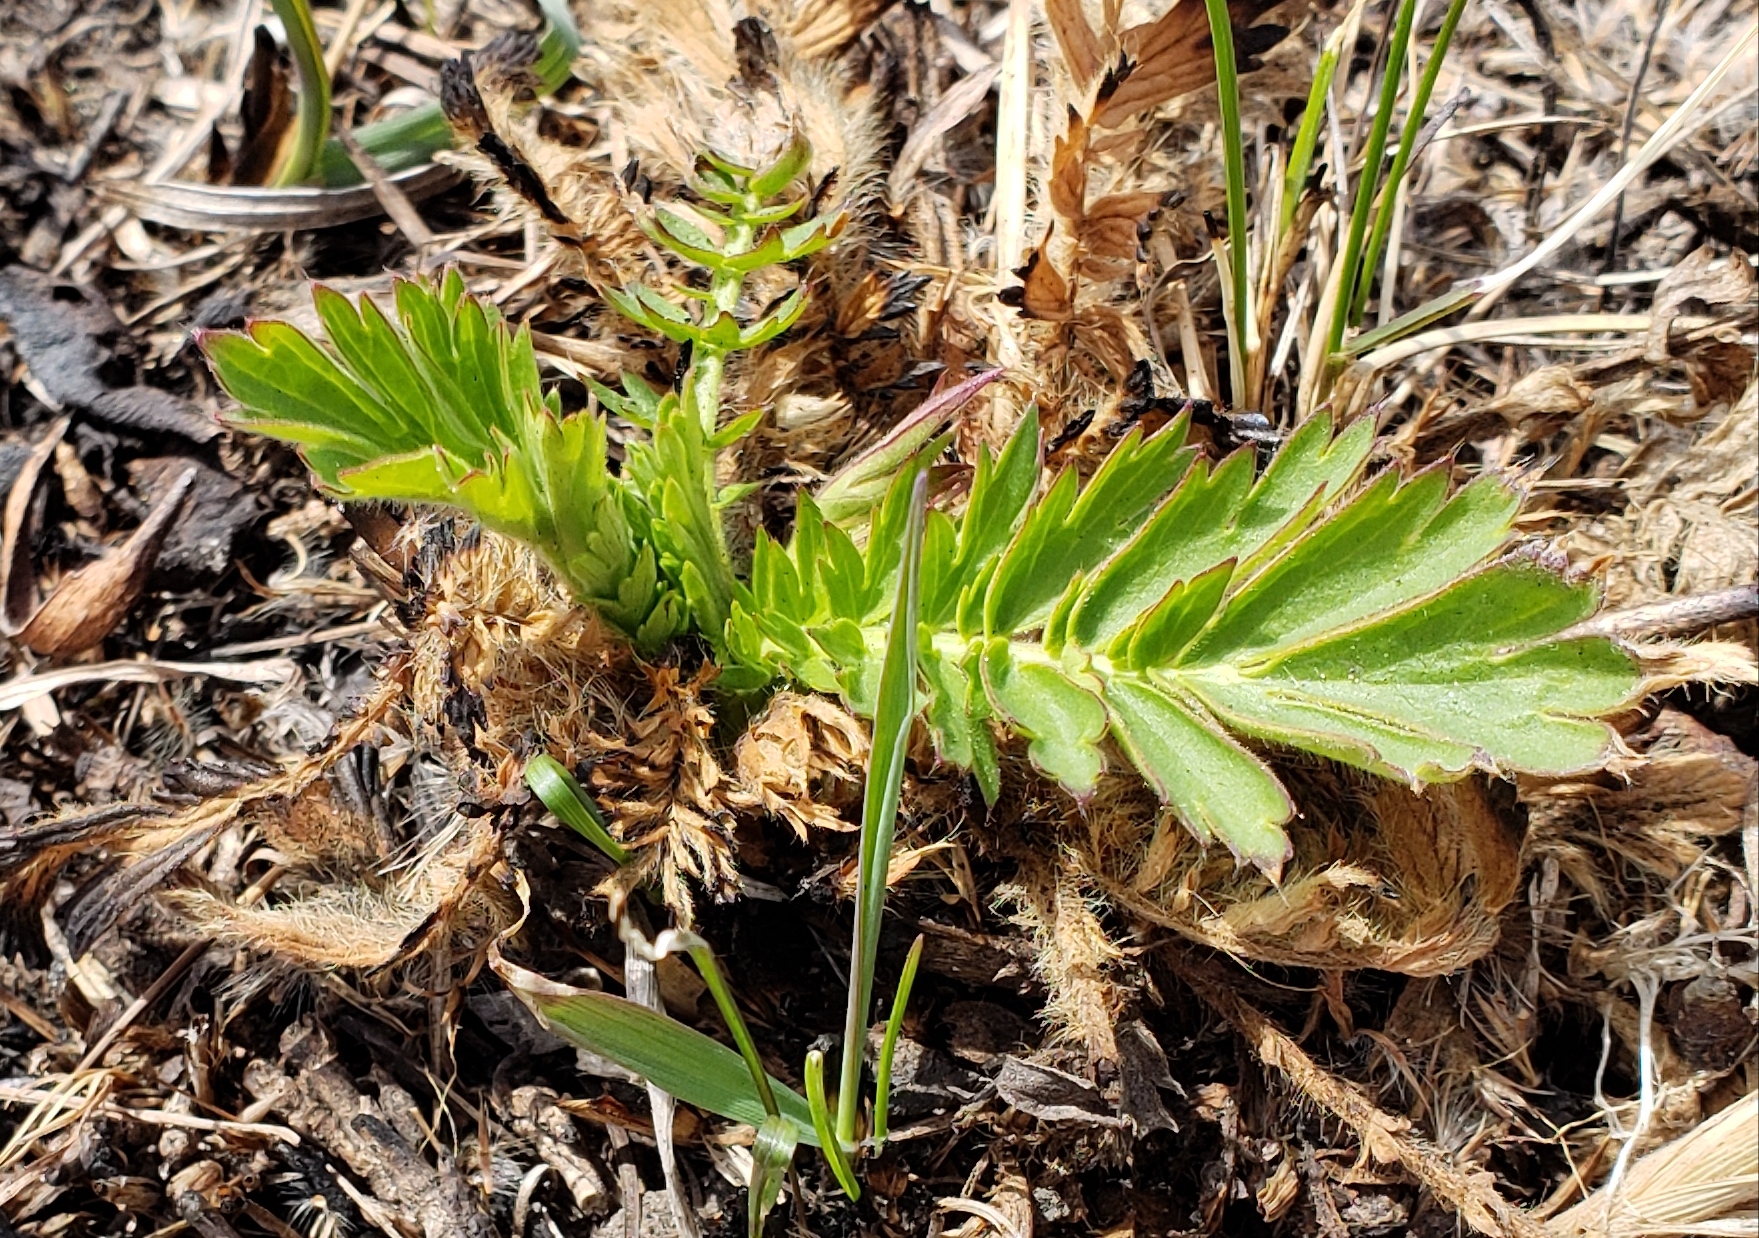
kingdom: Plantae
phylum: Tracheophyta
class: Magnoliopsida
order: Rosales
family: Rosaceae
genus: Geum
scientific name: Geum triflorum
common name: Old man's whiskers
